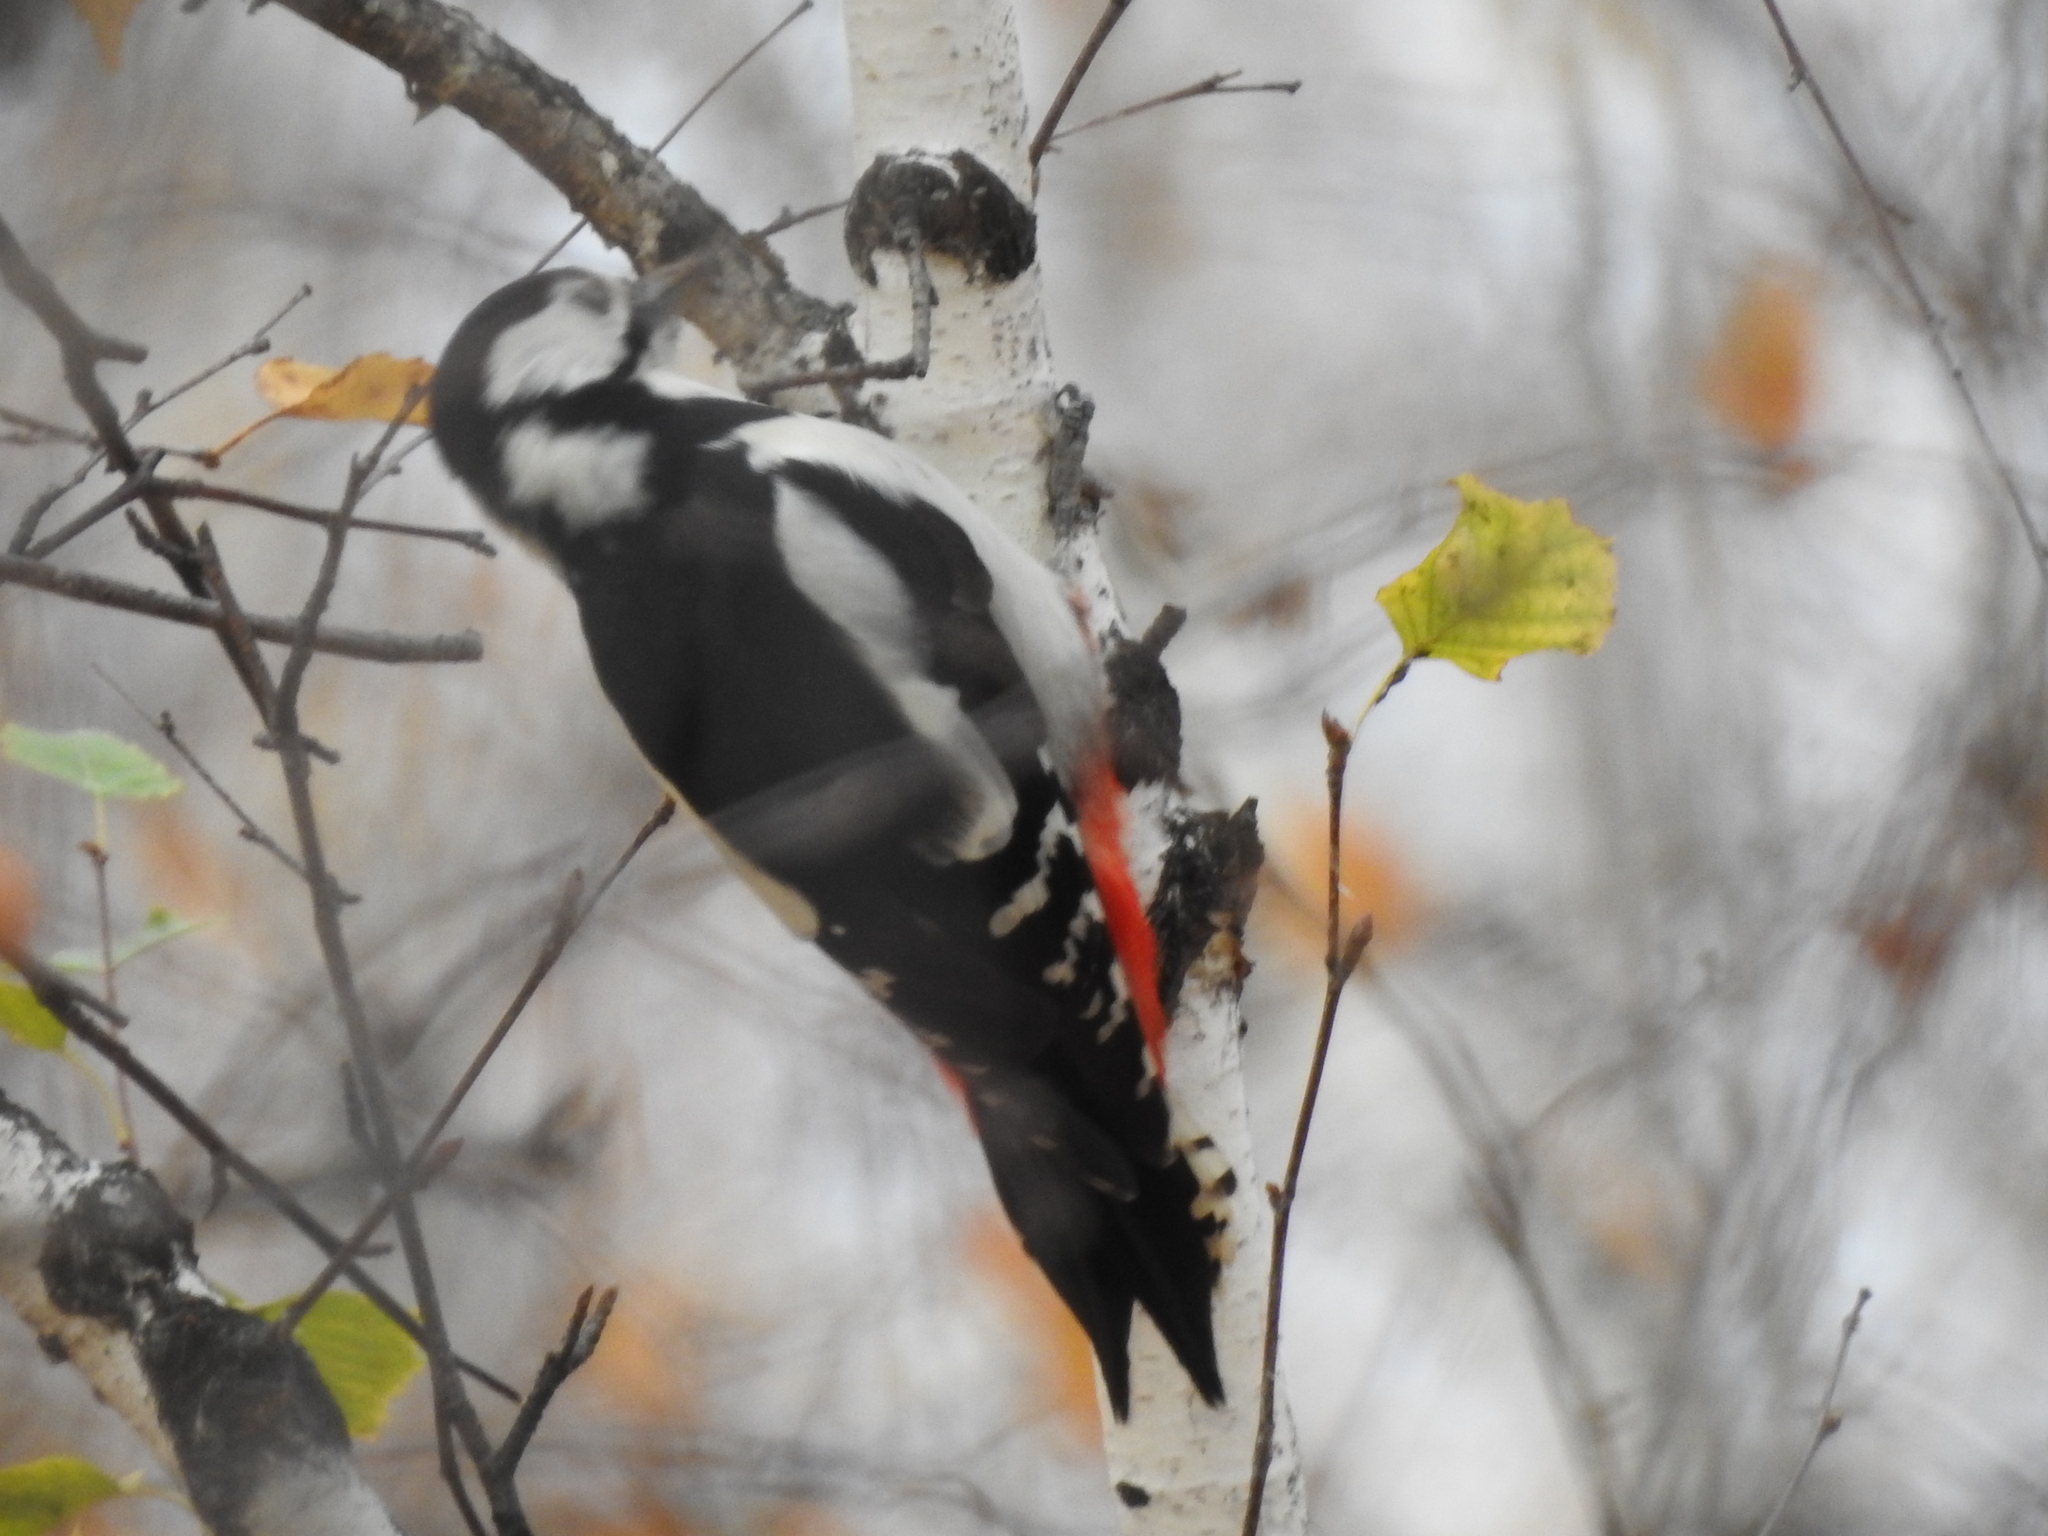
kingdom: Animalia
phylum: Chordata
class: Aves
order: Piciformes
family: Picidae
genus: Dendrocopos
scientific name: Dendrocopos major
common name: Great spotted woodpecker
